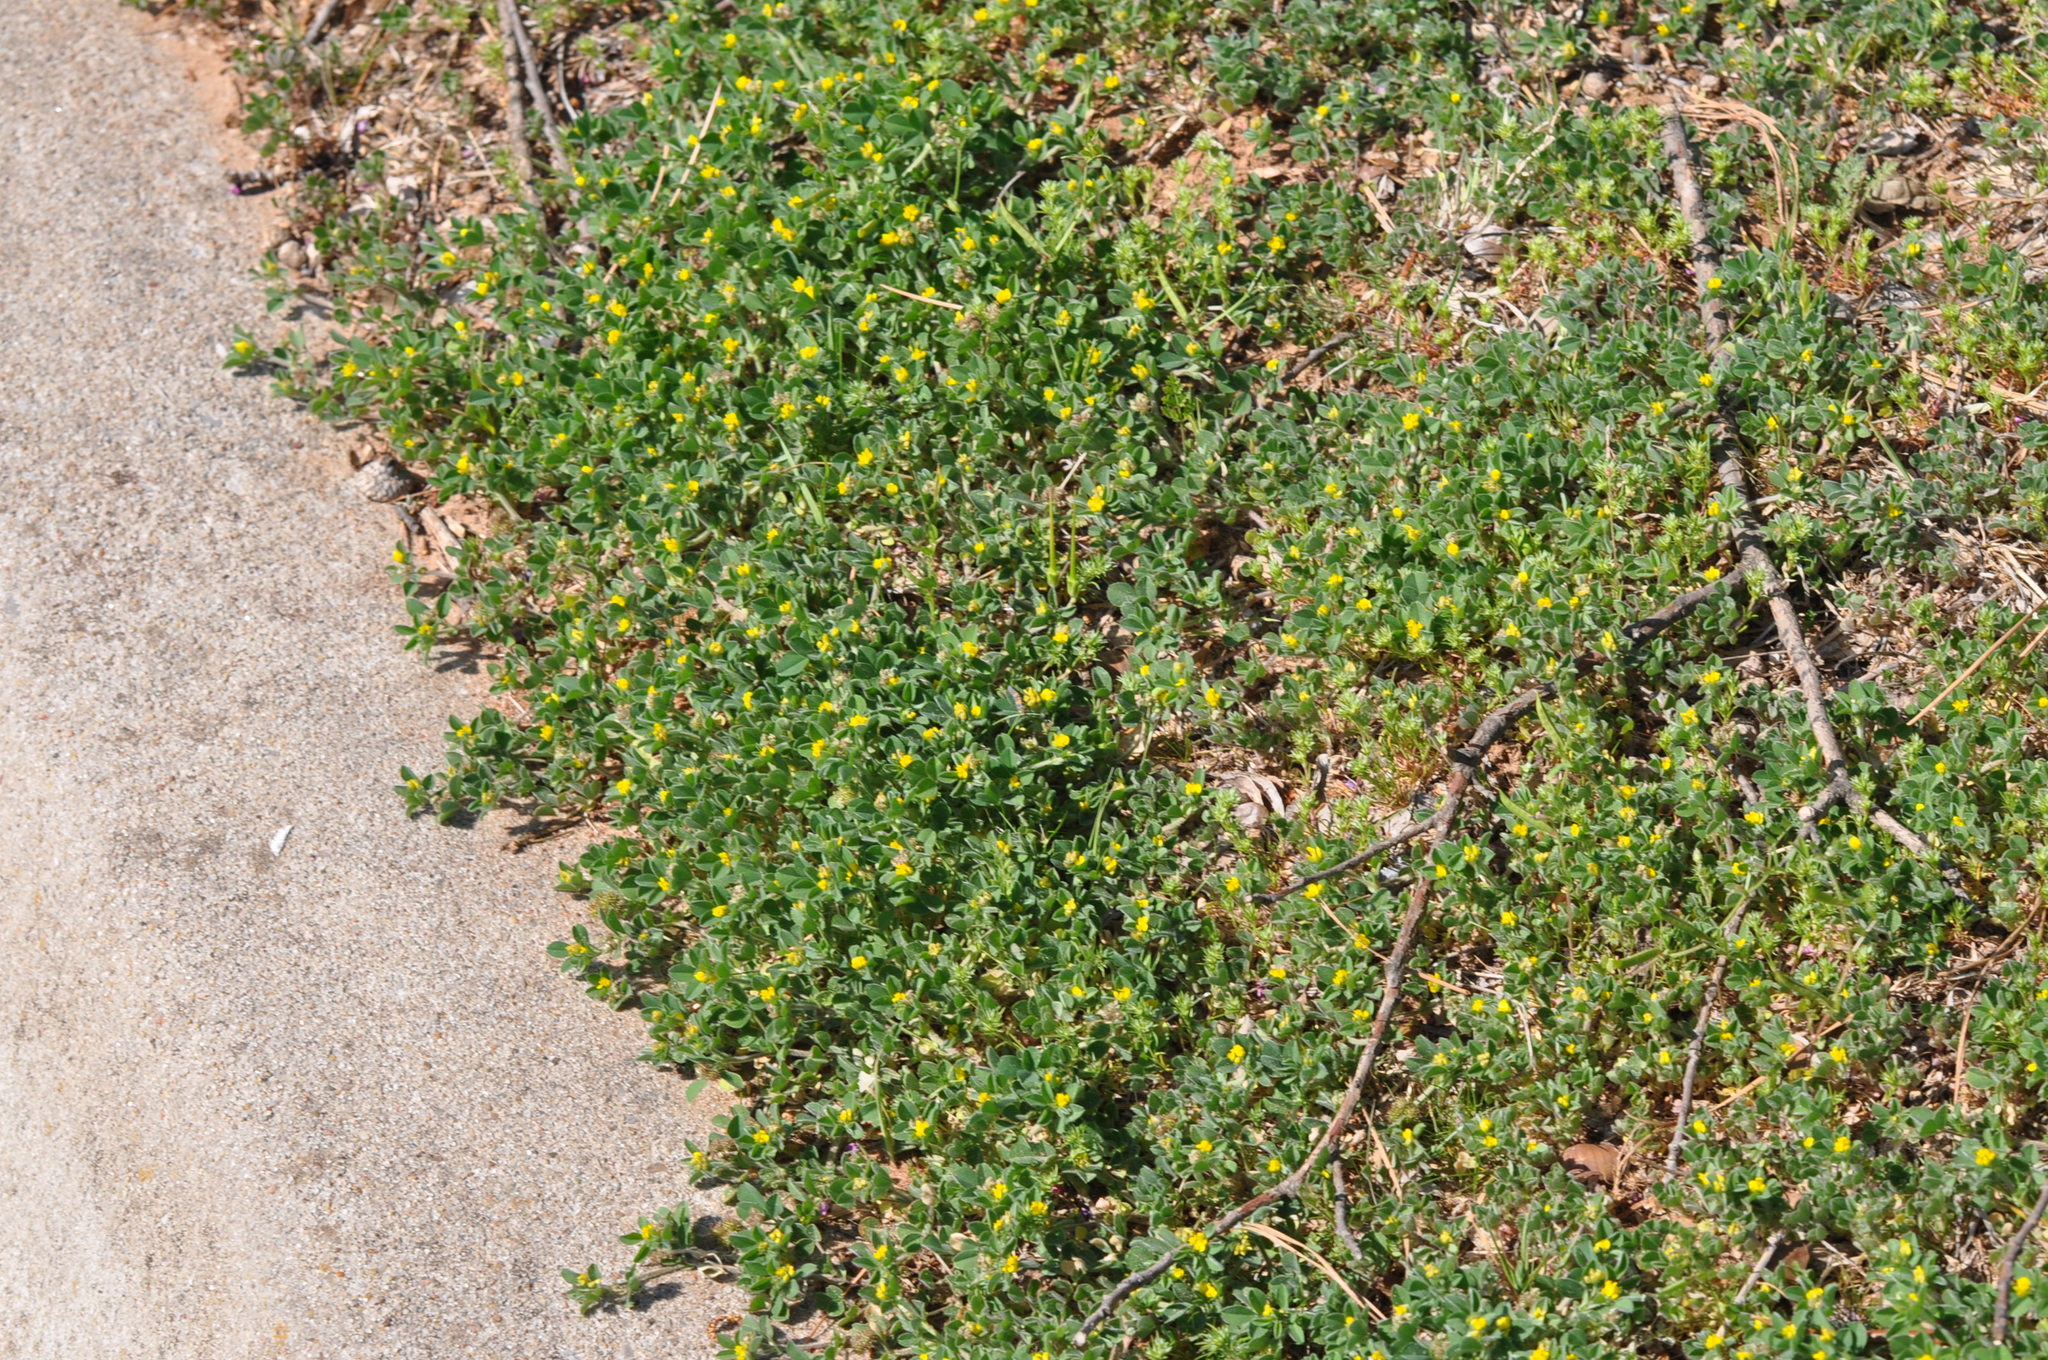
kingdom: Plantae
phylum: Tracheophyta
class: Magnoliopsida
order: Fabales
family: Fabaceae
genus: Medicago
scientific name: Medicago minima
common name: Little bur-clover
